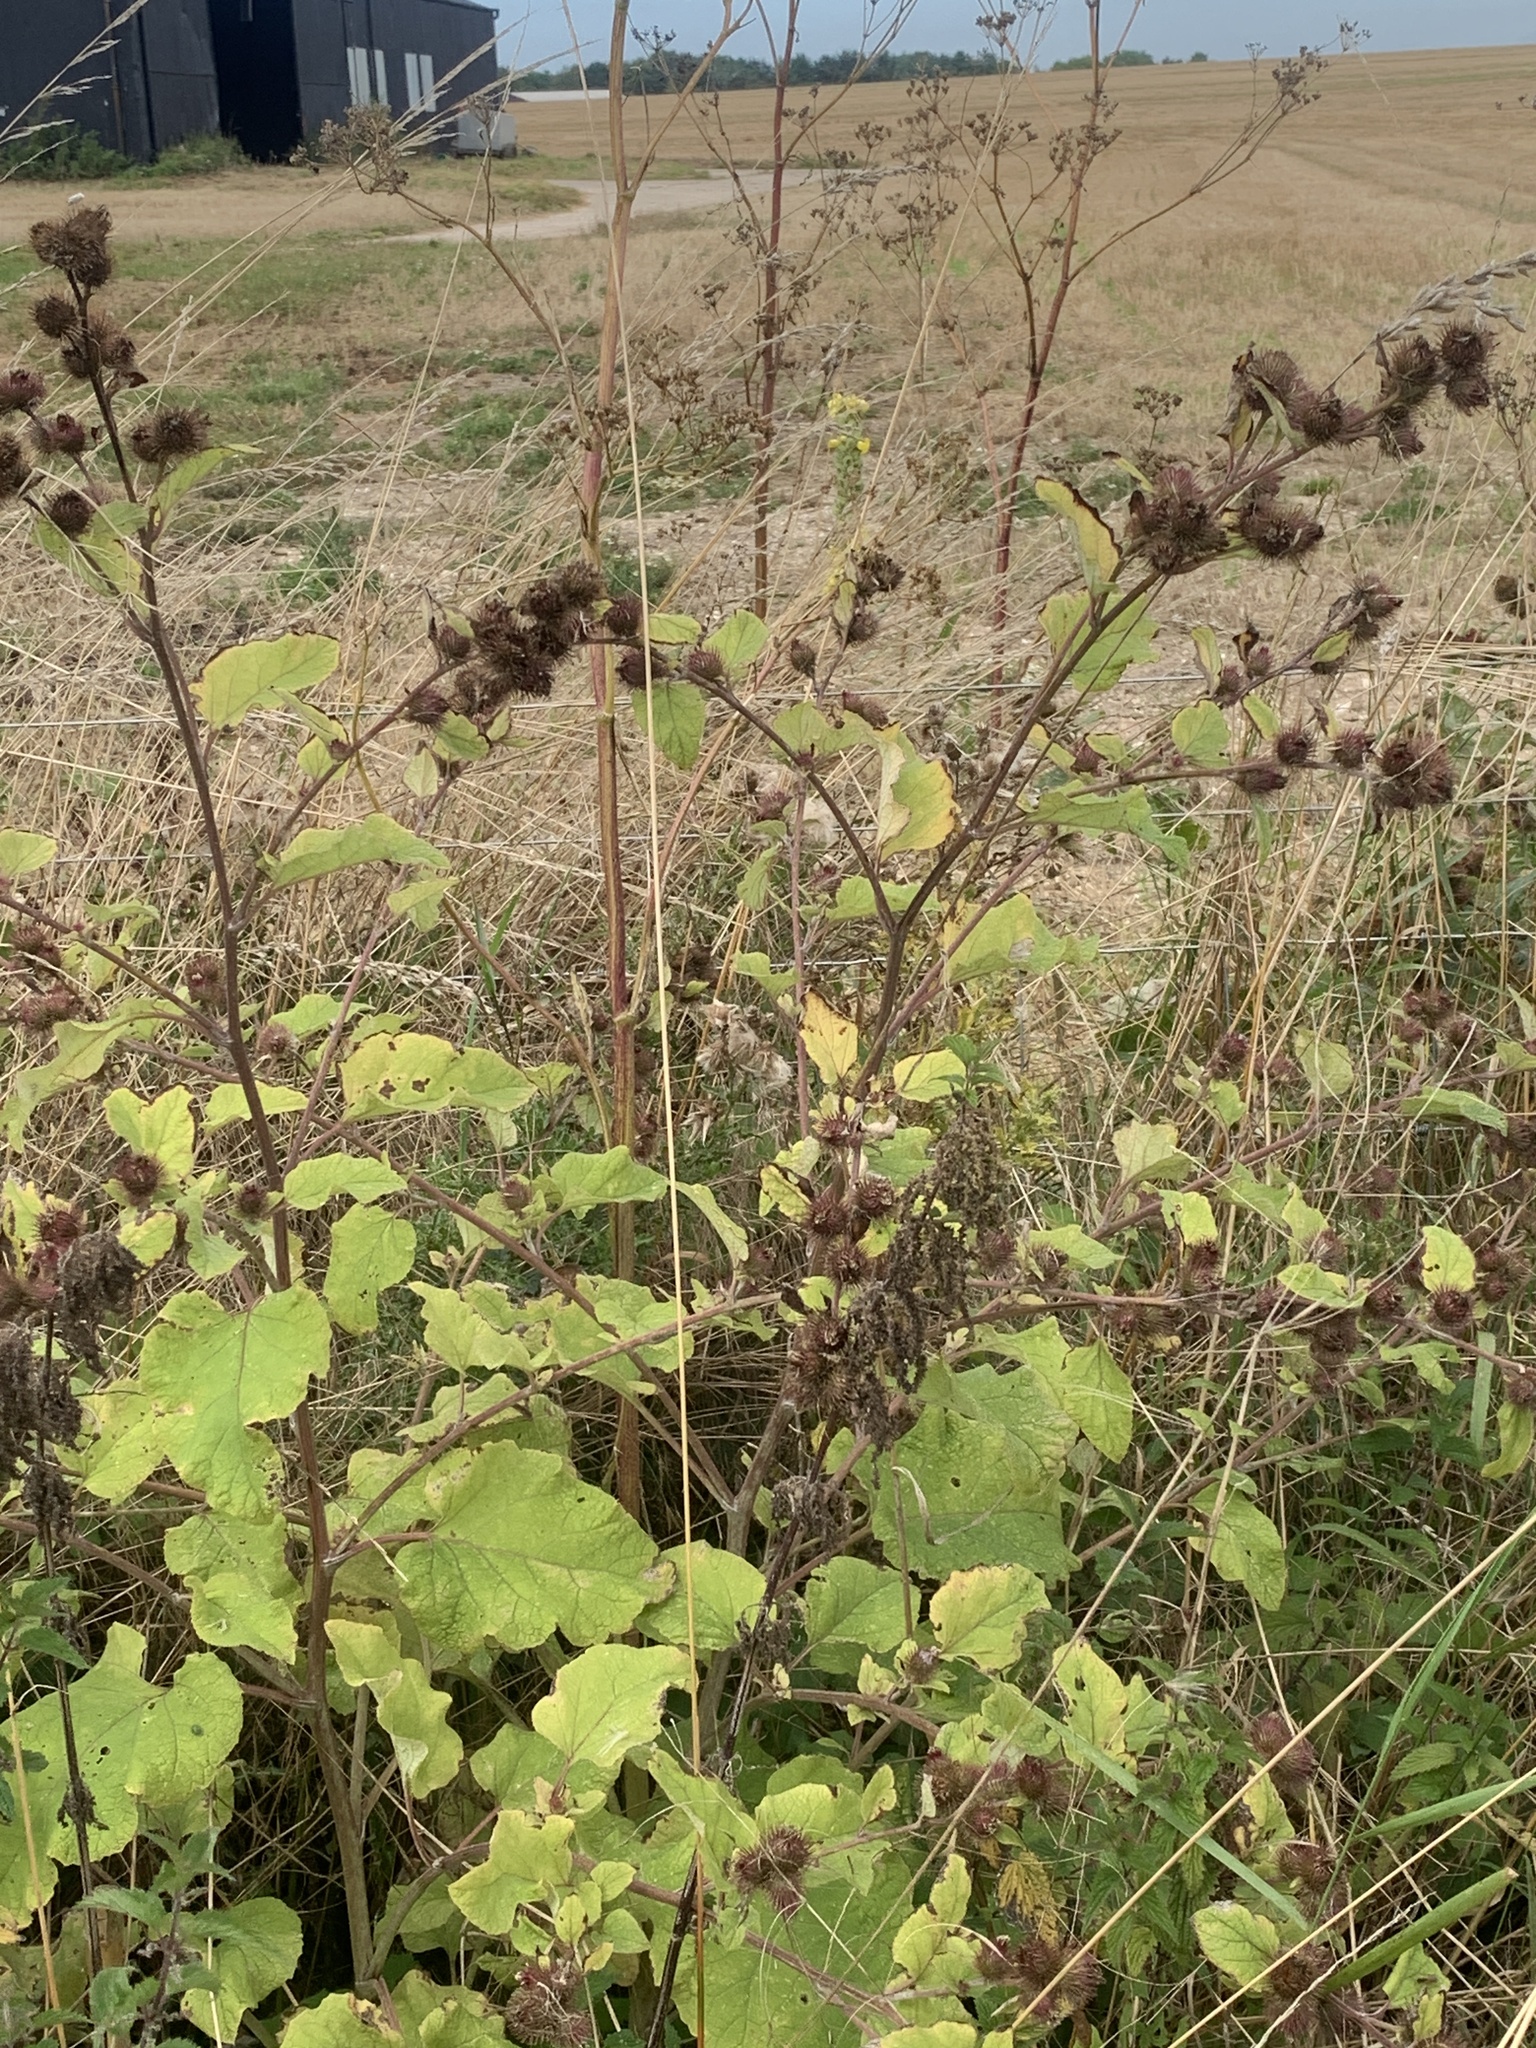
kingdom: Plantae
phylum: Tracheophyta
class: Magnoliopsida
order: Asterales
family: Asteraceae
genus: Arctium
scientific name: Arctium minus
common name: Lesser burdock
